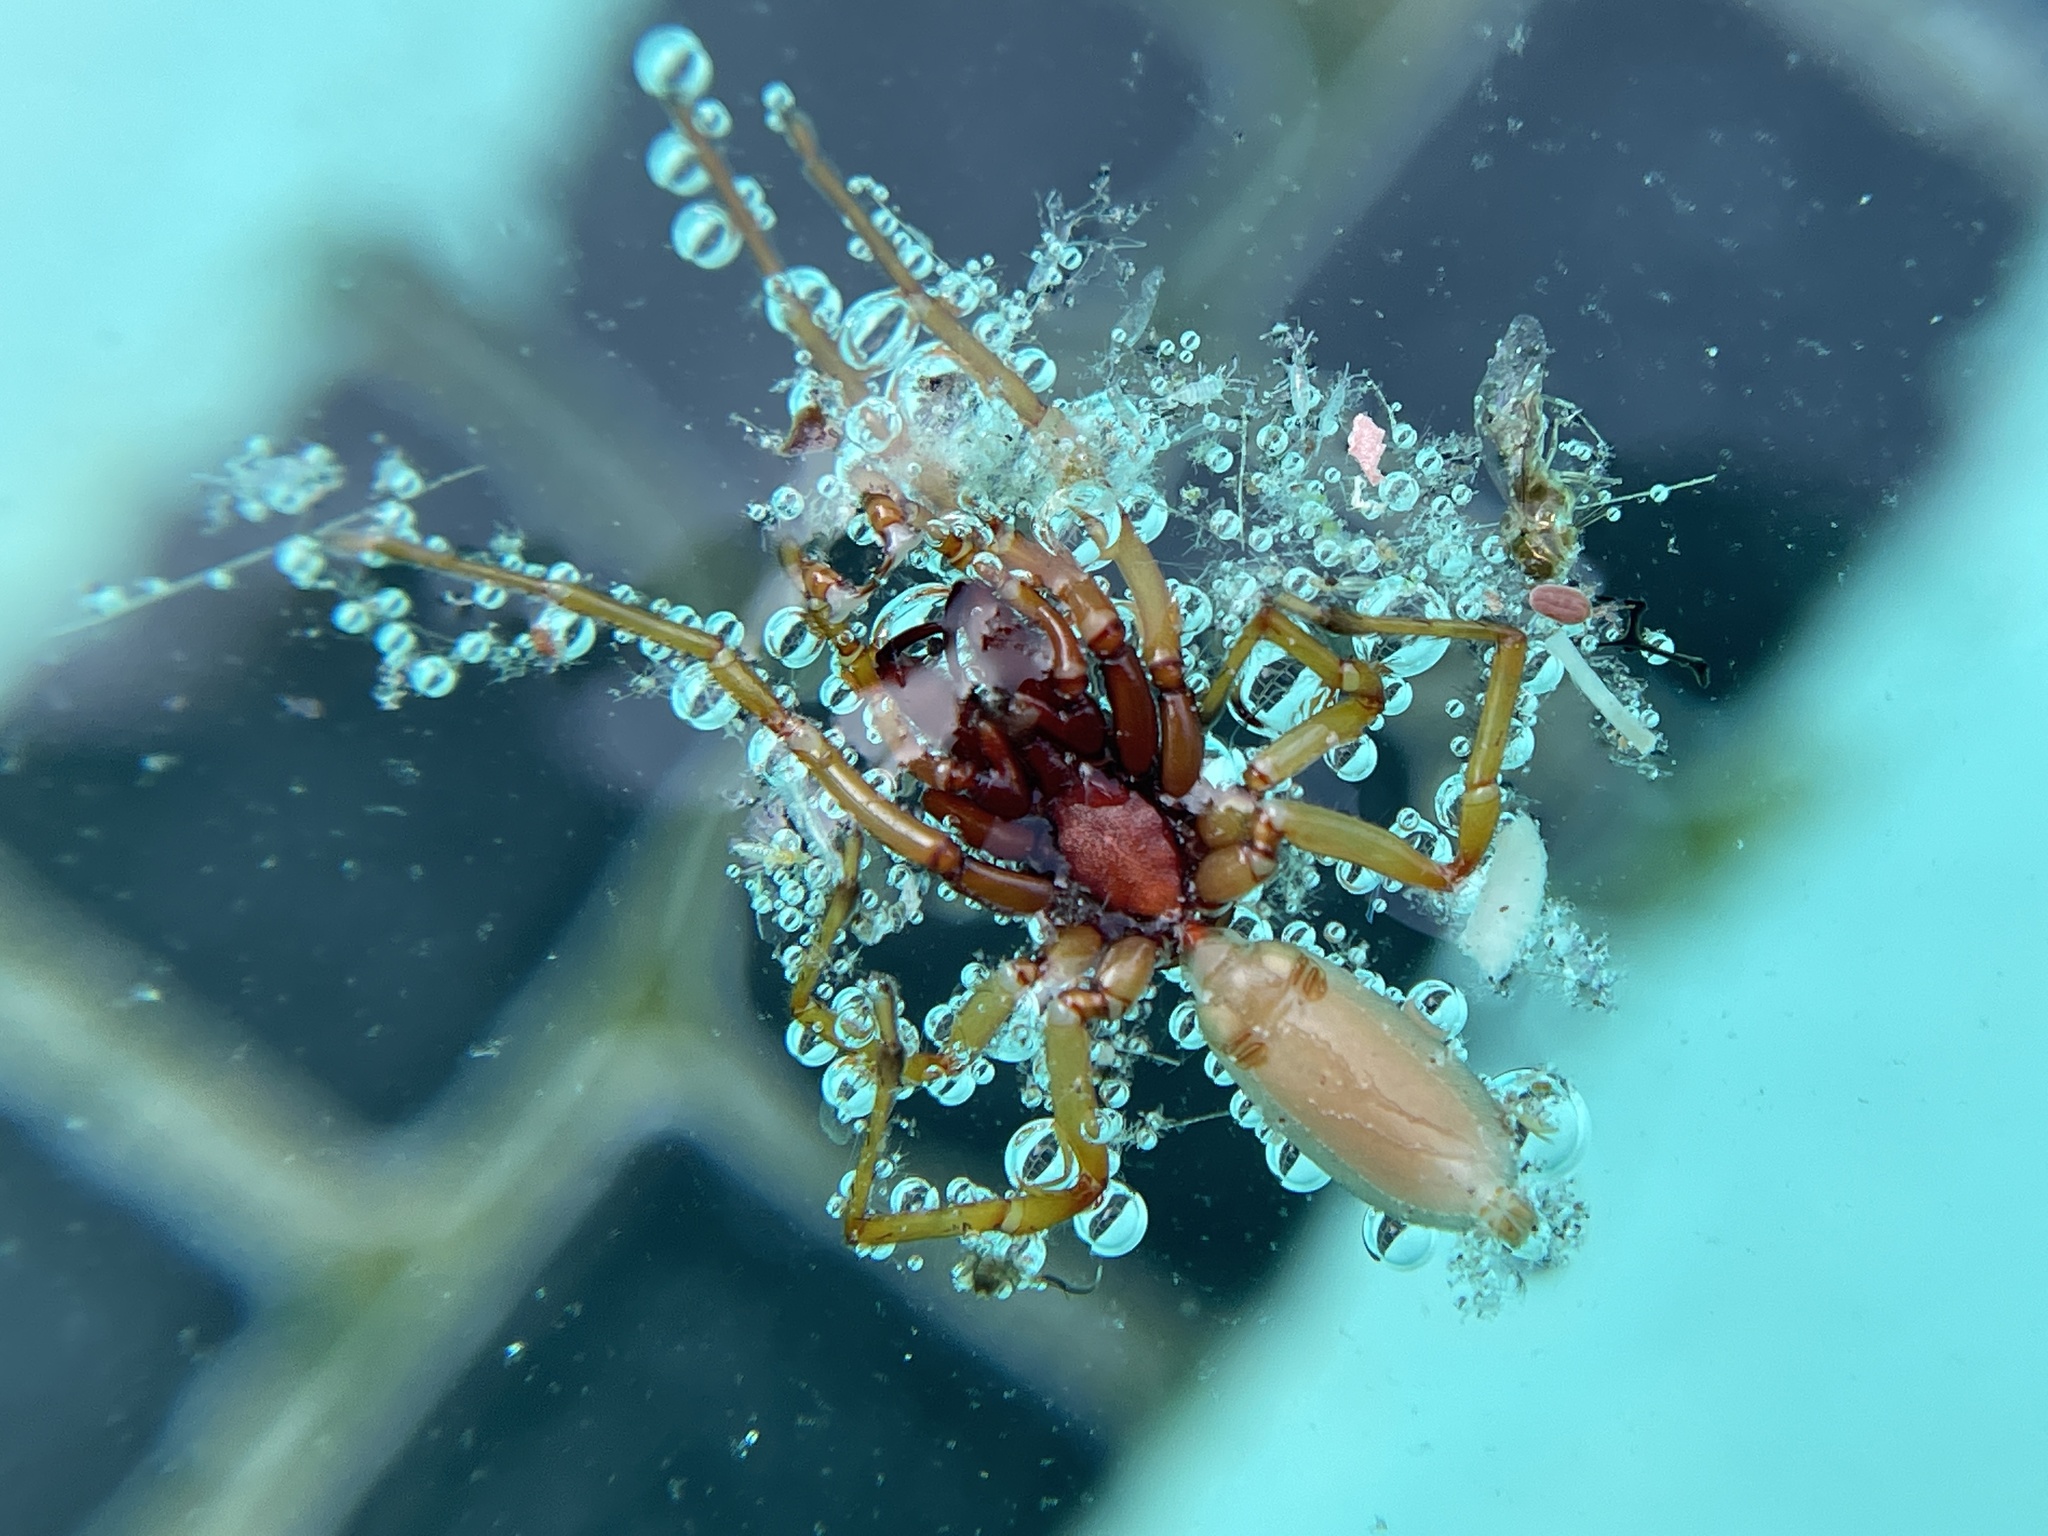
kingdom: Animalia
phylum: Arthropoda
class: Arachnida
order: Araneae
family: Dysderidae
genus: Dysdera
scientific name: Dysdera crocata
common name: Woodlouse spider
